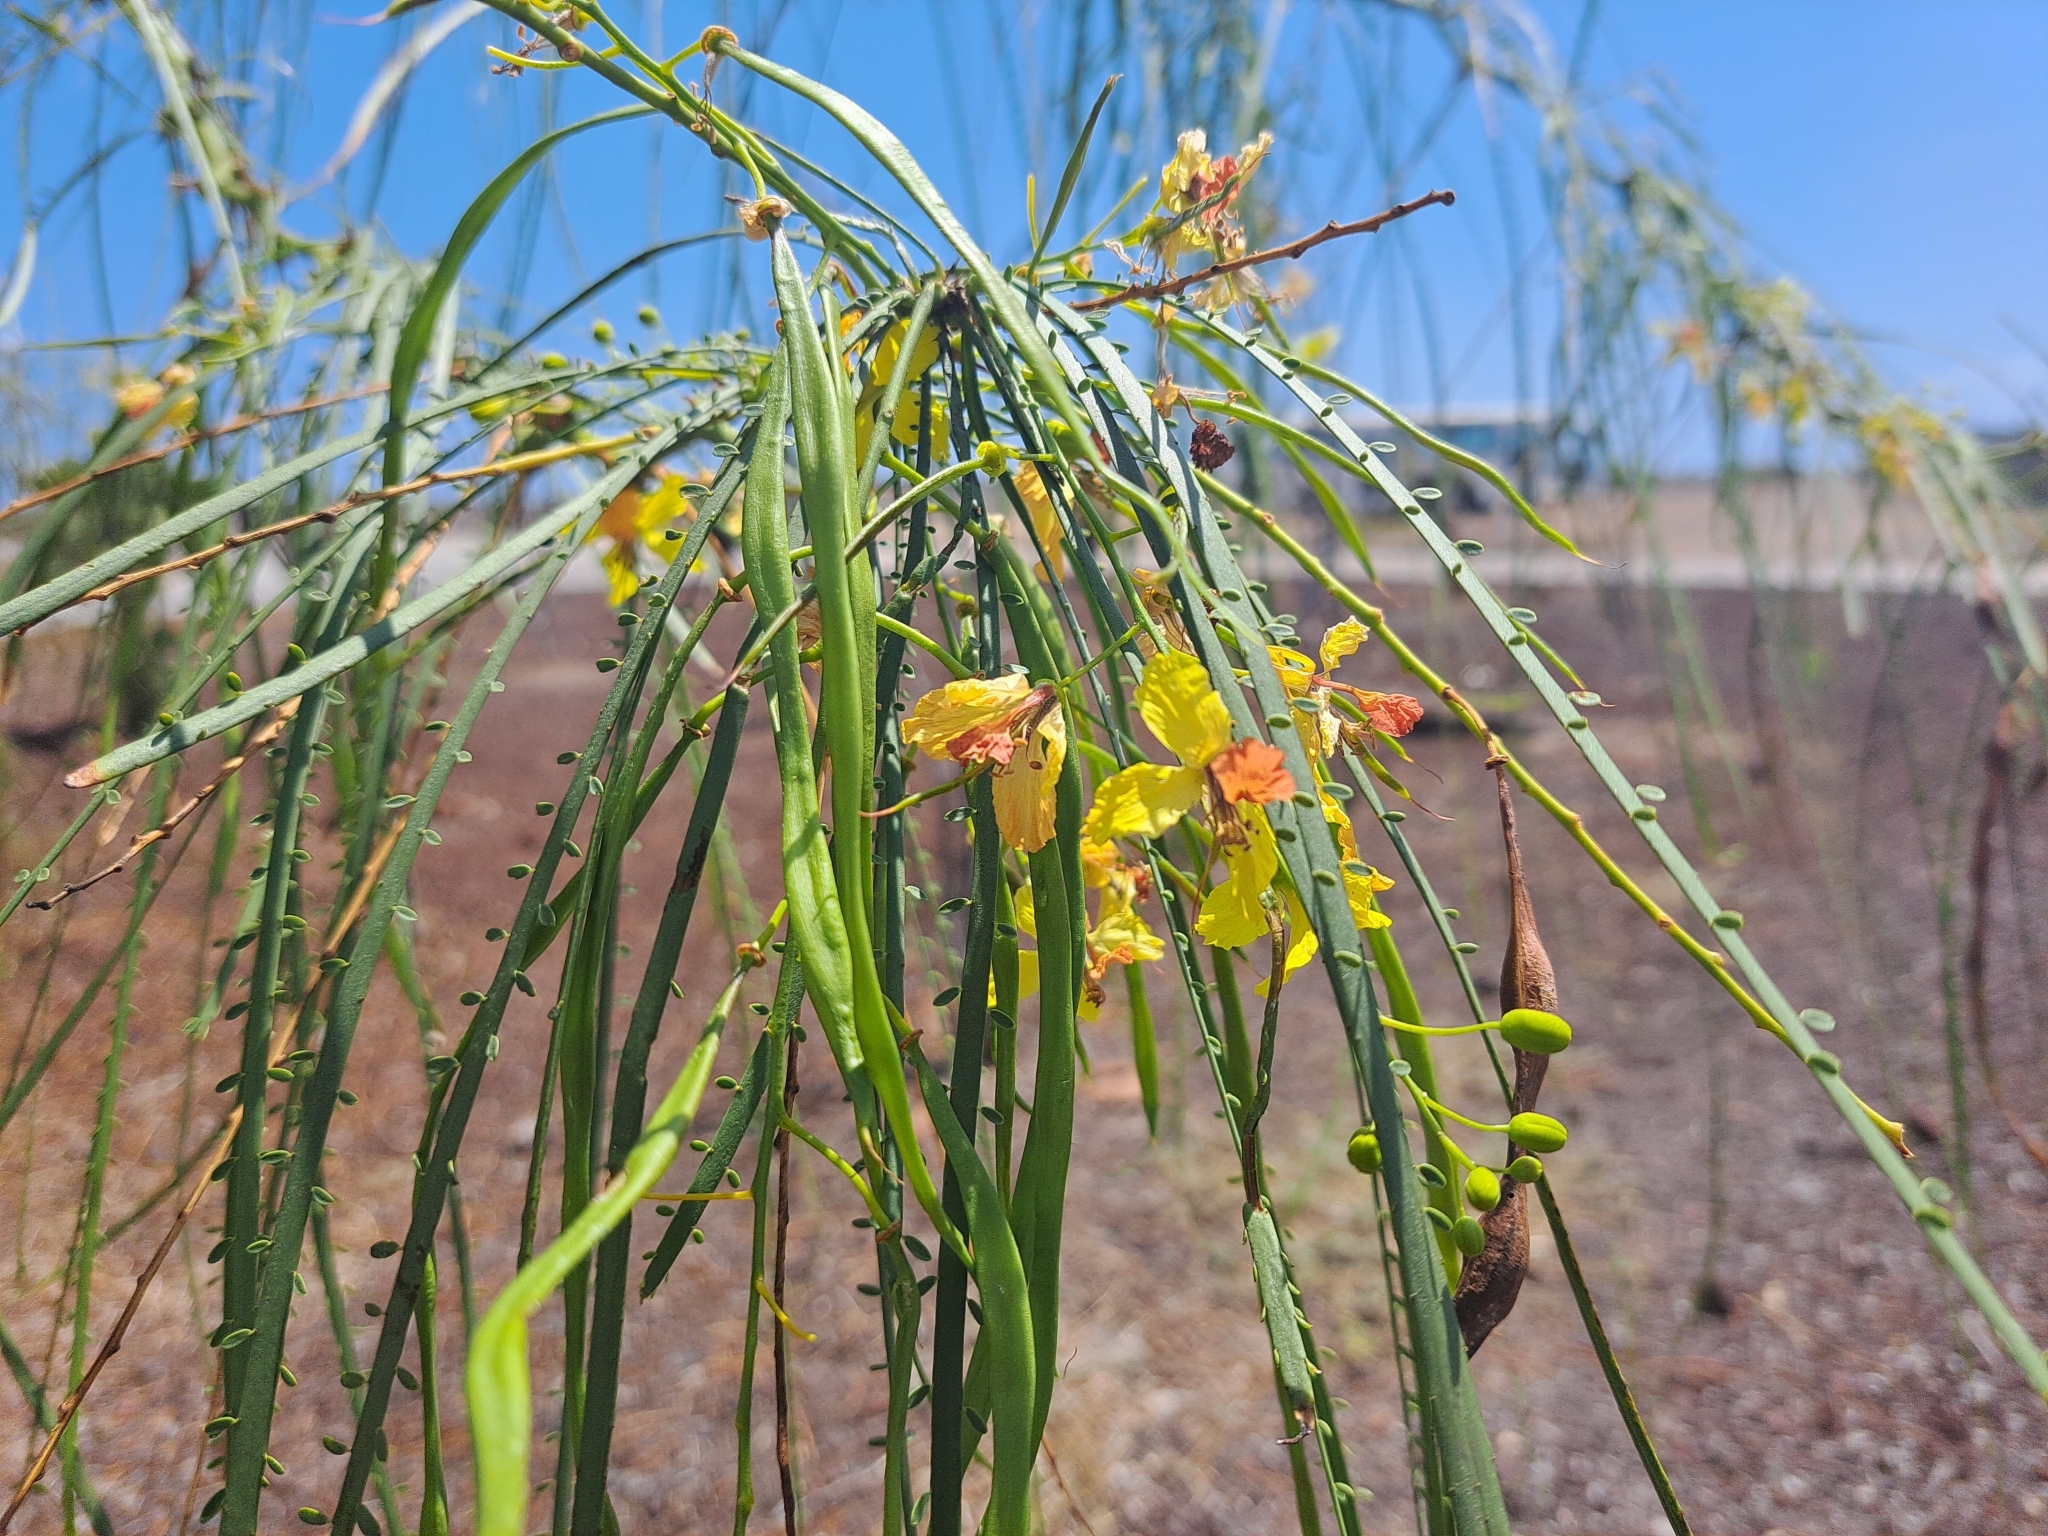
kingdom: Plantae
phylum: Tracheophyta
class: Magnoliopsida
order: Fabales
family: Fabaceae
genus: Parkinsonia
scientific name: Parkinsonia aculeata
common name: Jerusalem thorn
